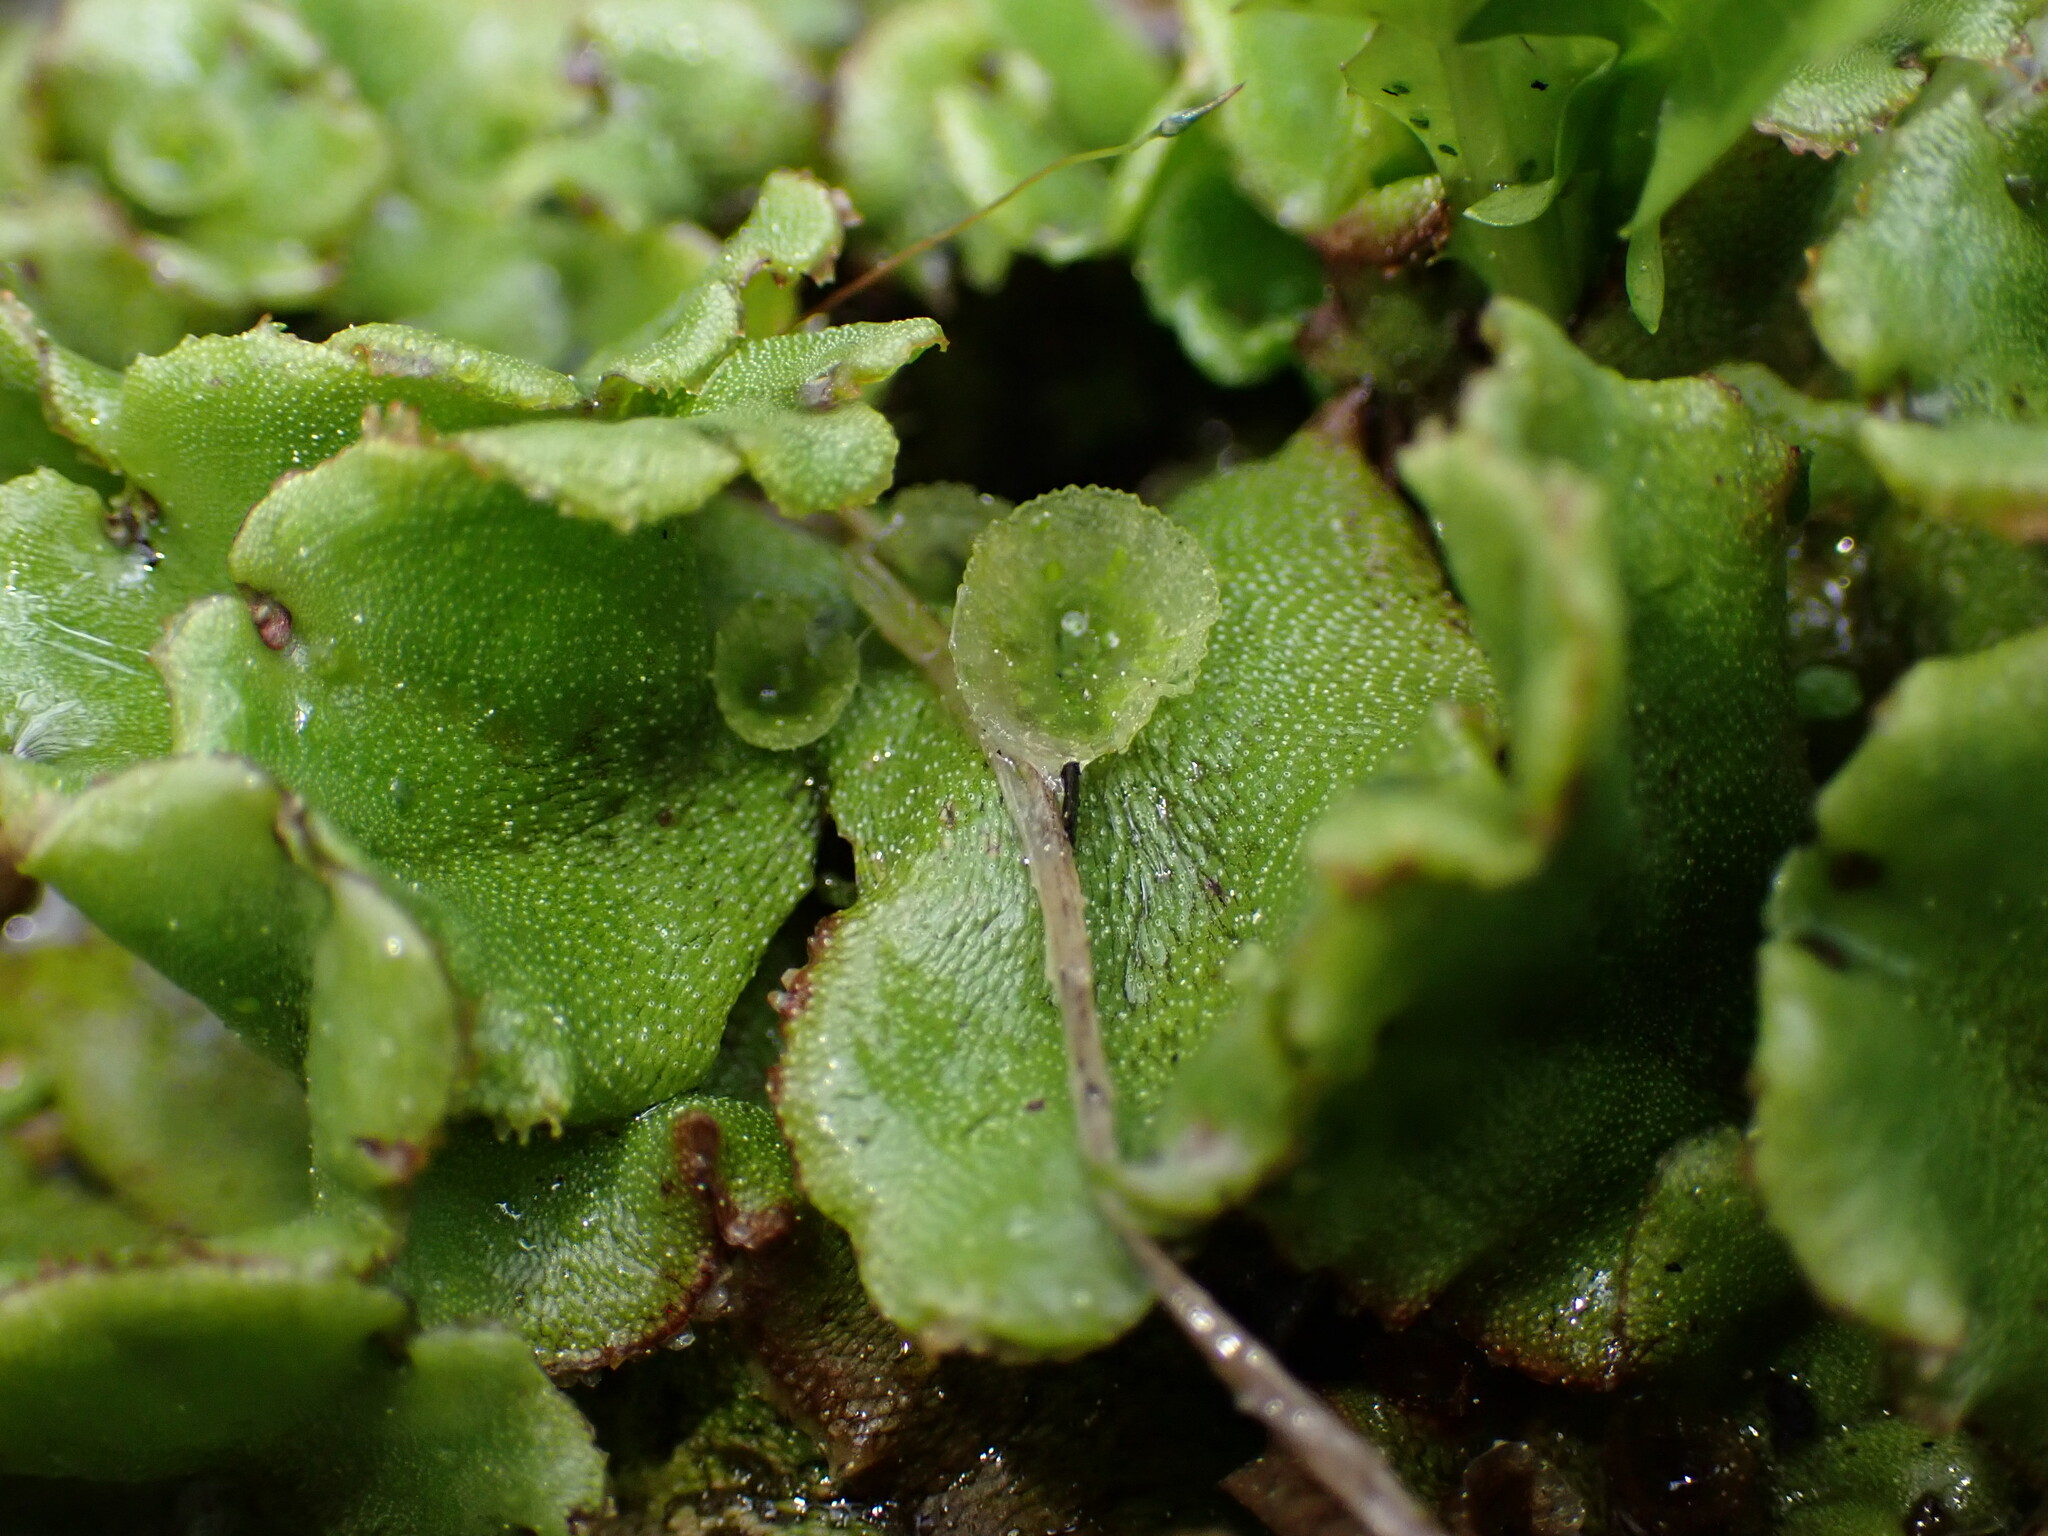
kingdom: Plantae
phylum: Marchantiophyta
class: Marchantiopsida
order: Marchantiales
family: Marchantiaceae
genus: Marchantia
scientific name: Marchantia polymorpha
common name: Common liverwort
